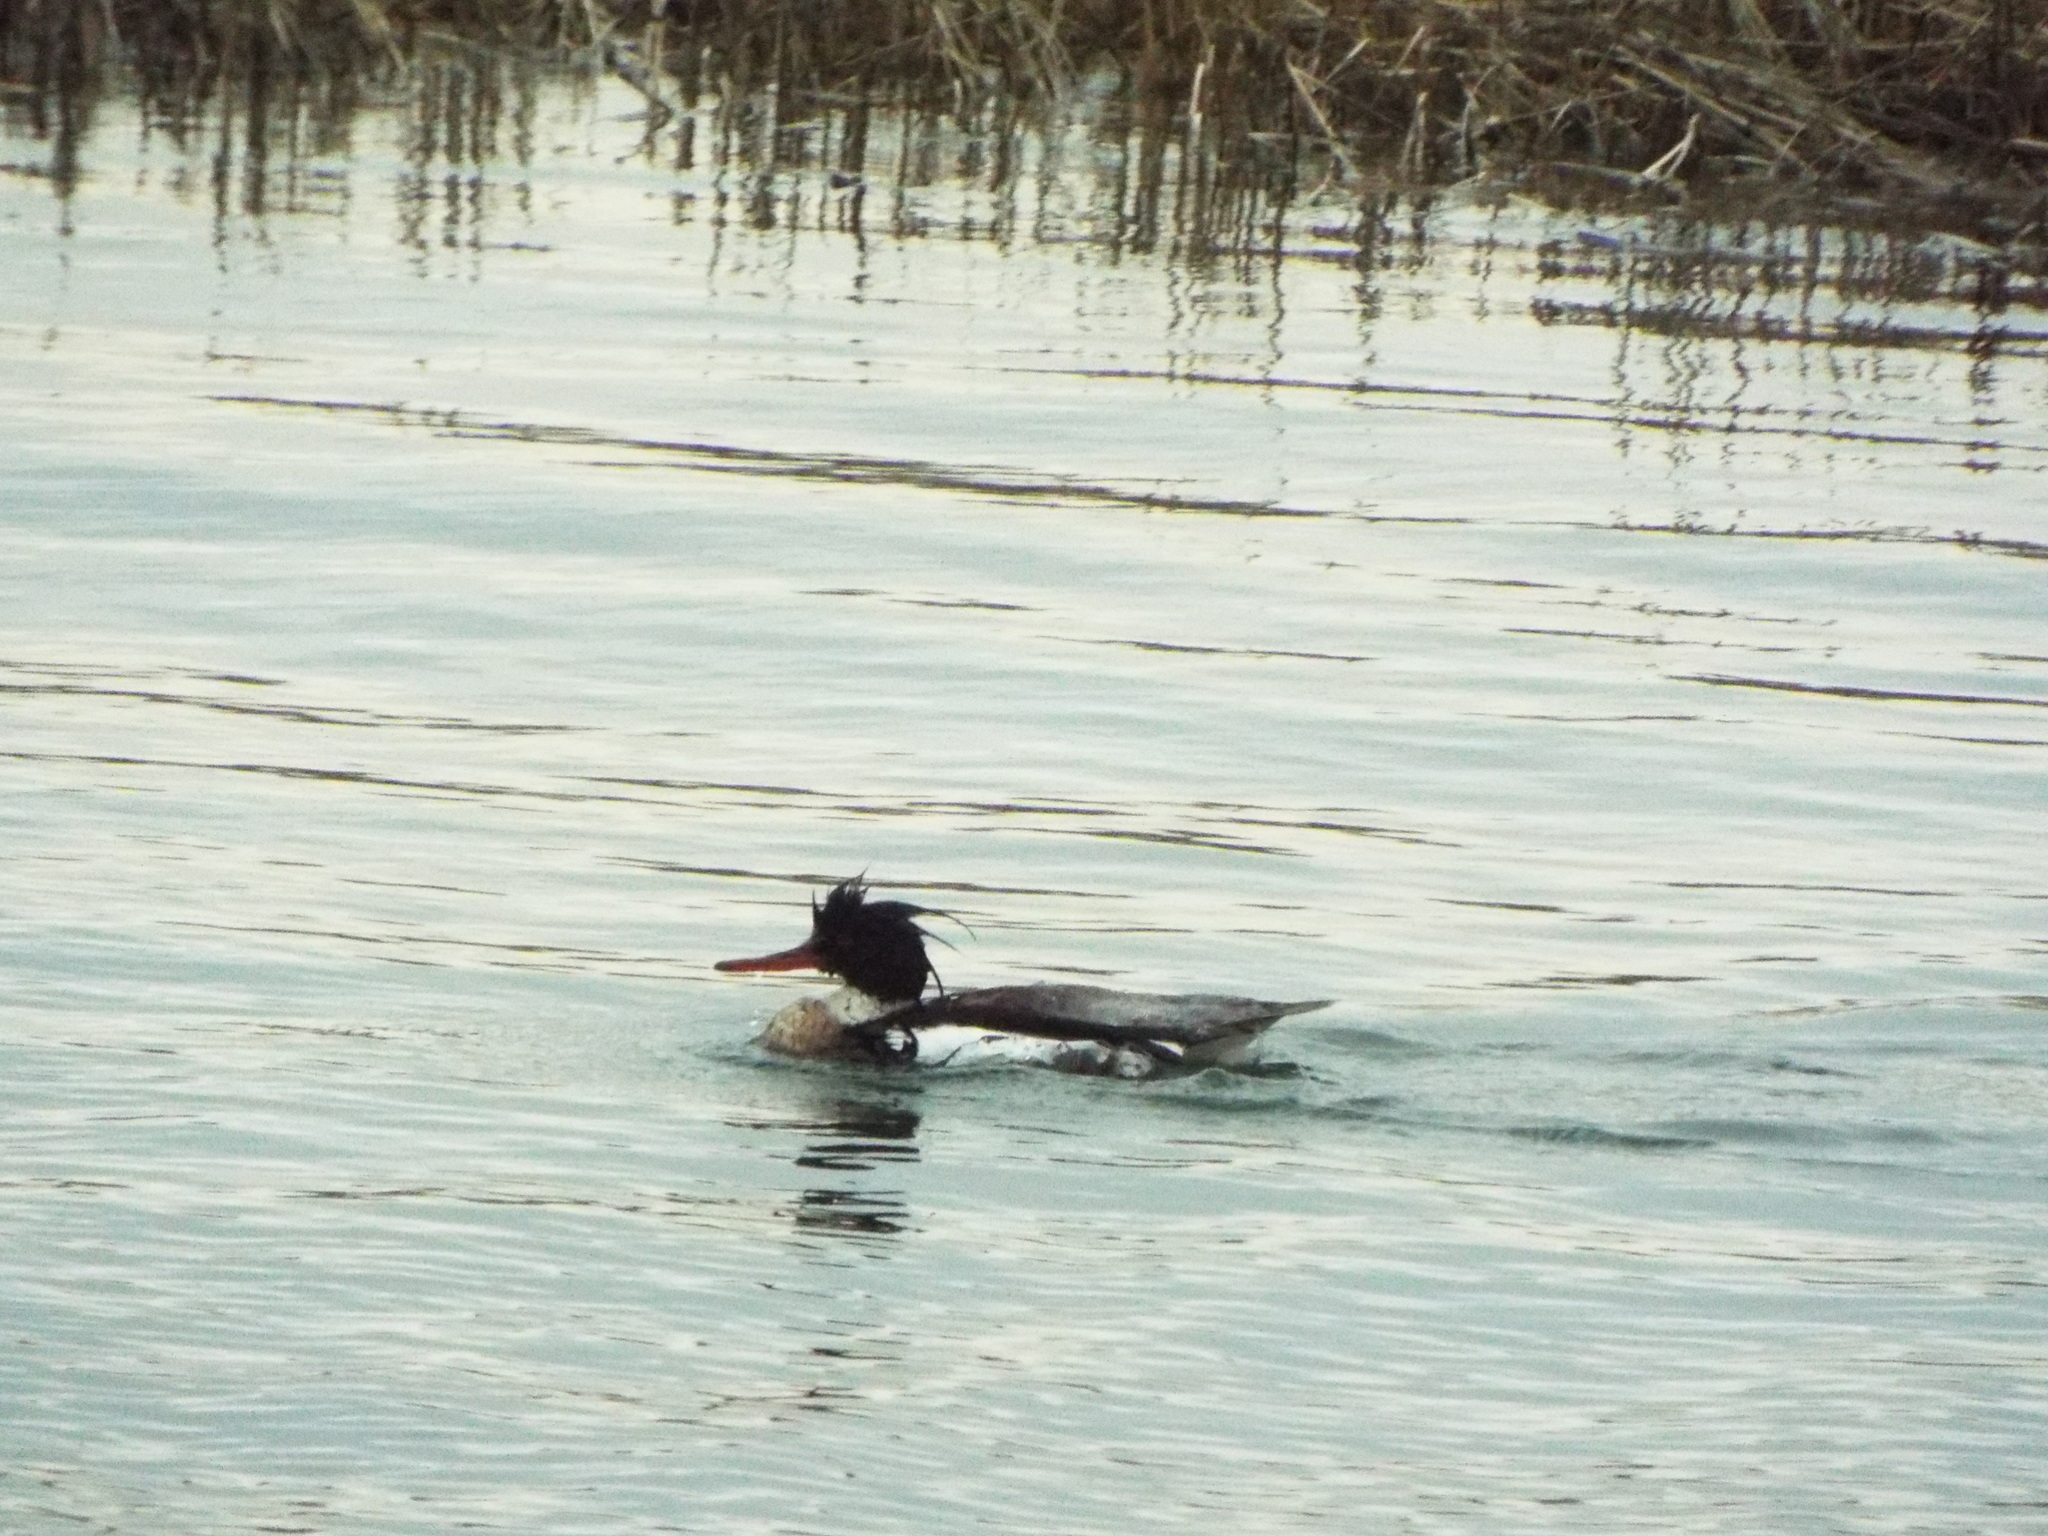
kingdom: Animalia
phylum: Chordata
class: Aves
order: Anseriformes
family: Anatidae
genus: Mergus
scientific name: Mergus serrator
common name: Red-breasted merganser
